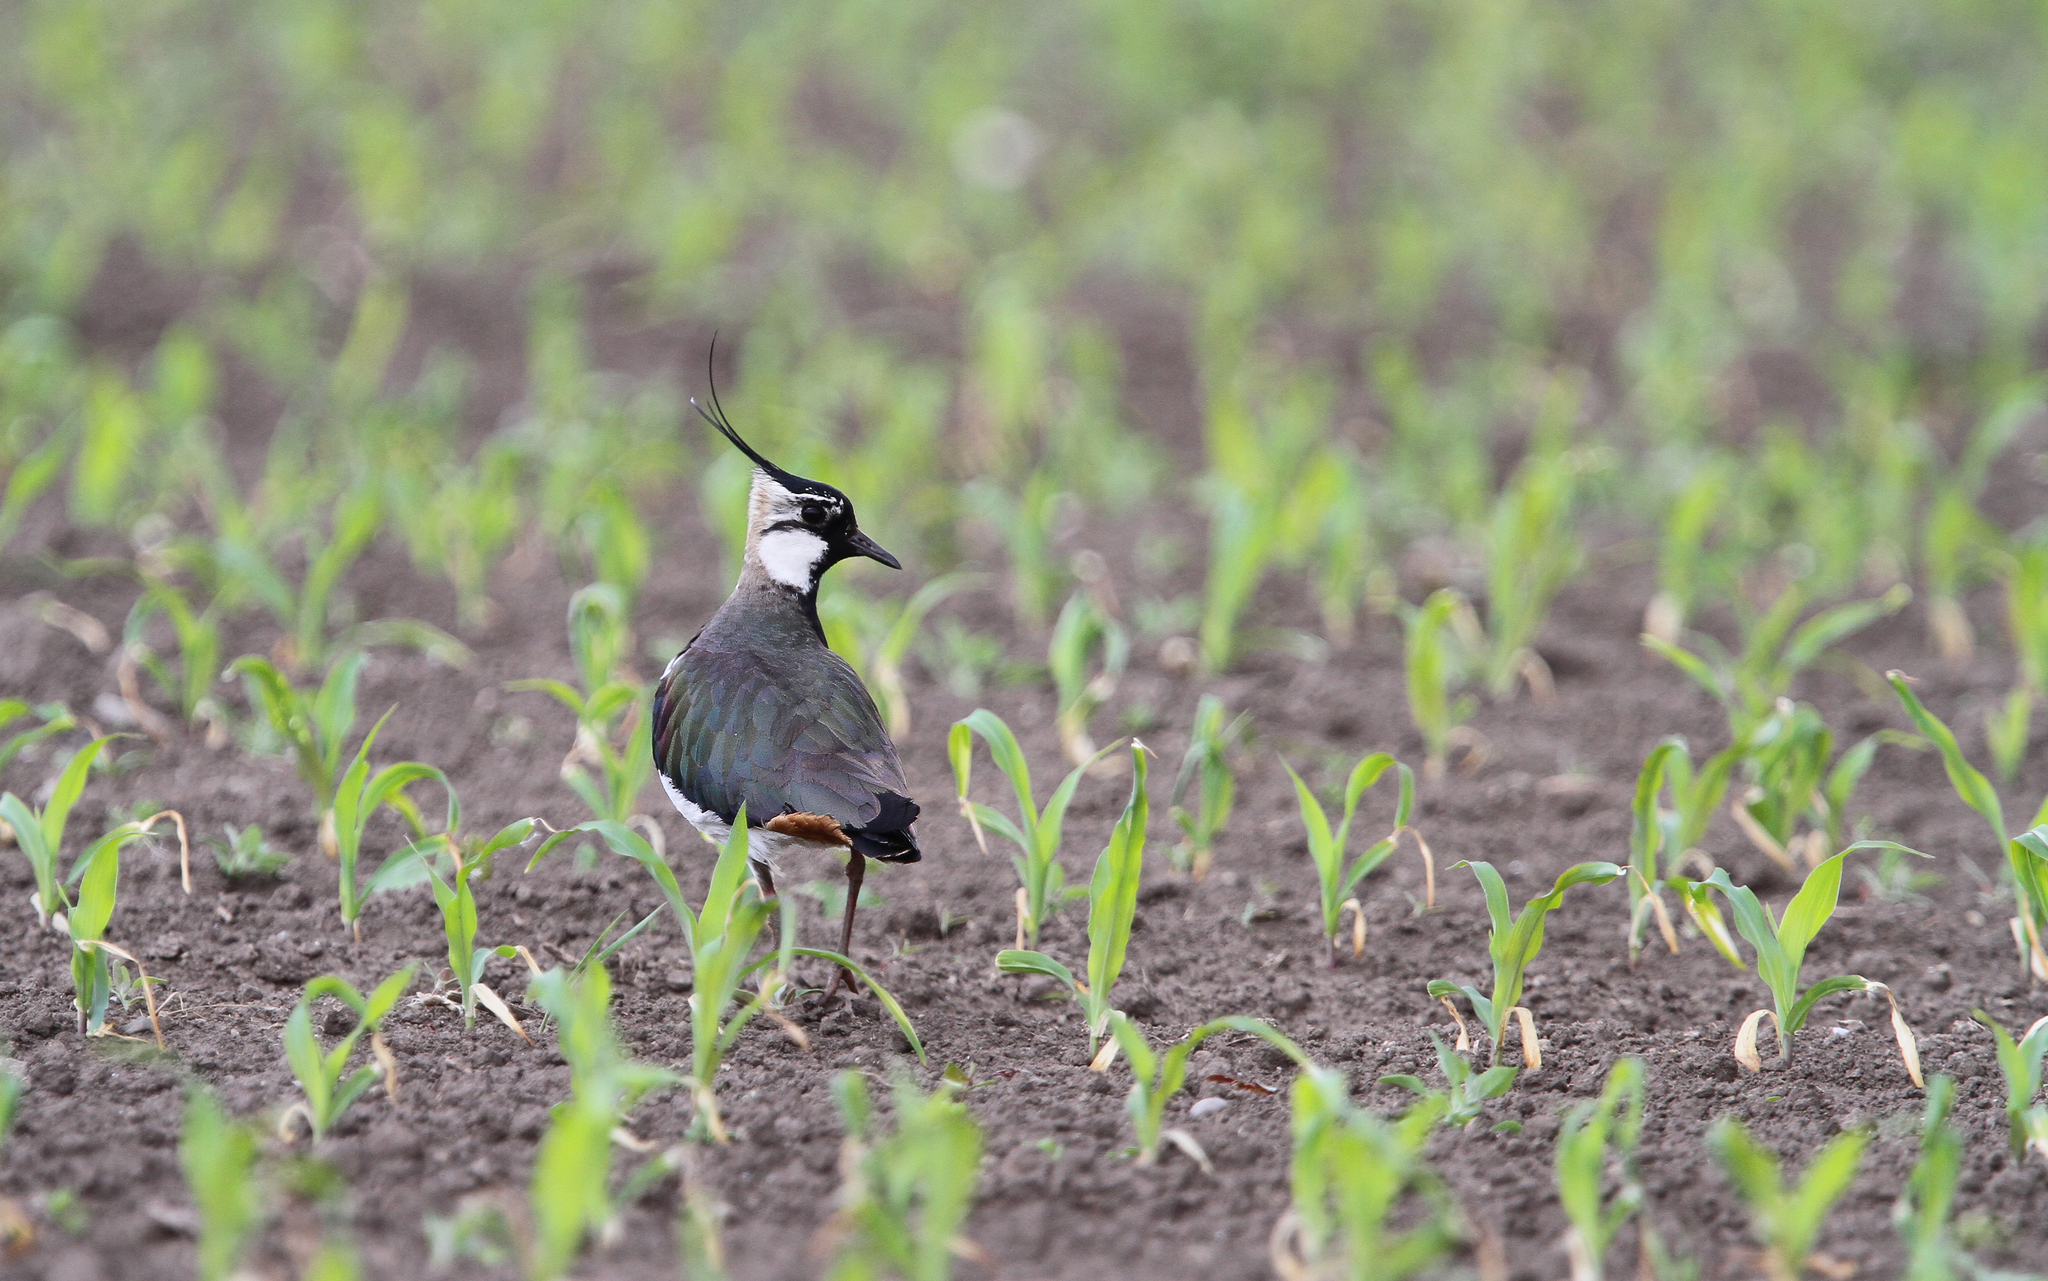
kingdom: Animalia
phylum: Chordata
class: Aves
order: Charadriiformes
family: Charadriidae
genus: Vanellus
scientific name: Vanellus vanellus
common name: Northern lapwing
